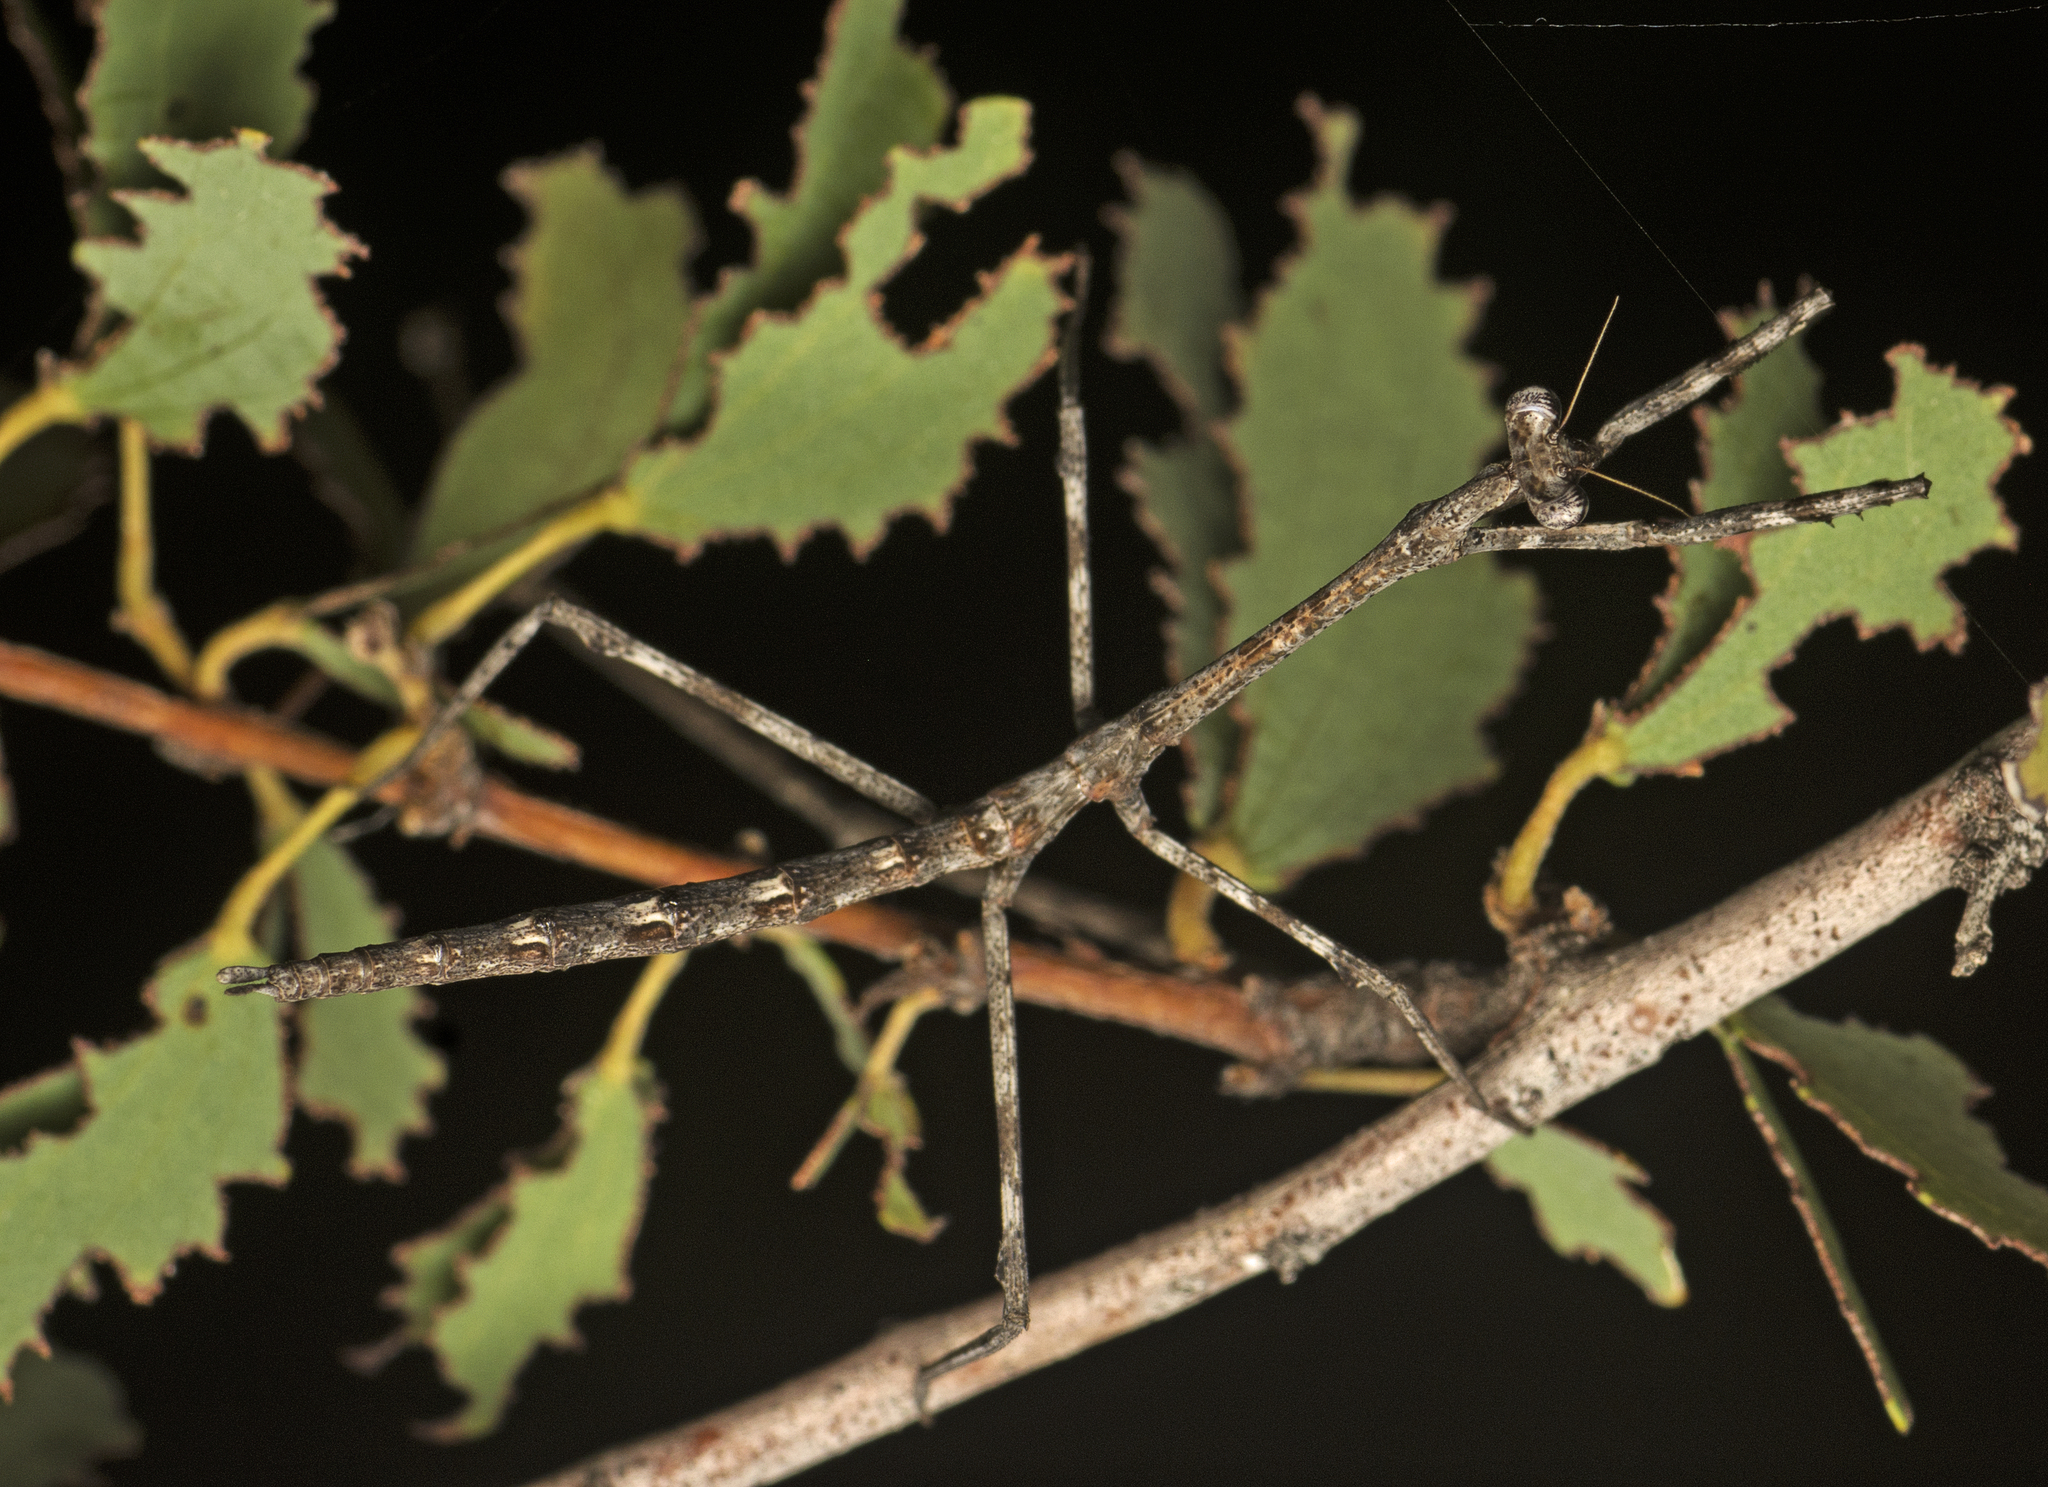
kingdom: Animalia
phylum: Arthropoda
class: Insecta
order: Mantodea
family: Mantidae
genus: Austrovates
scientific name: Austrovates variegata
